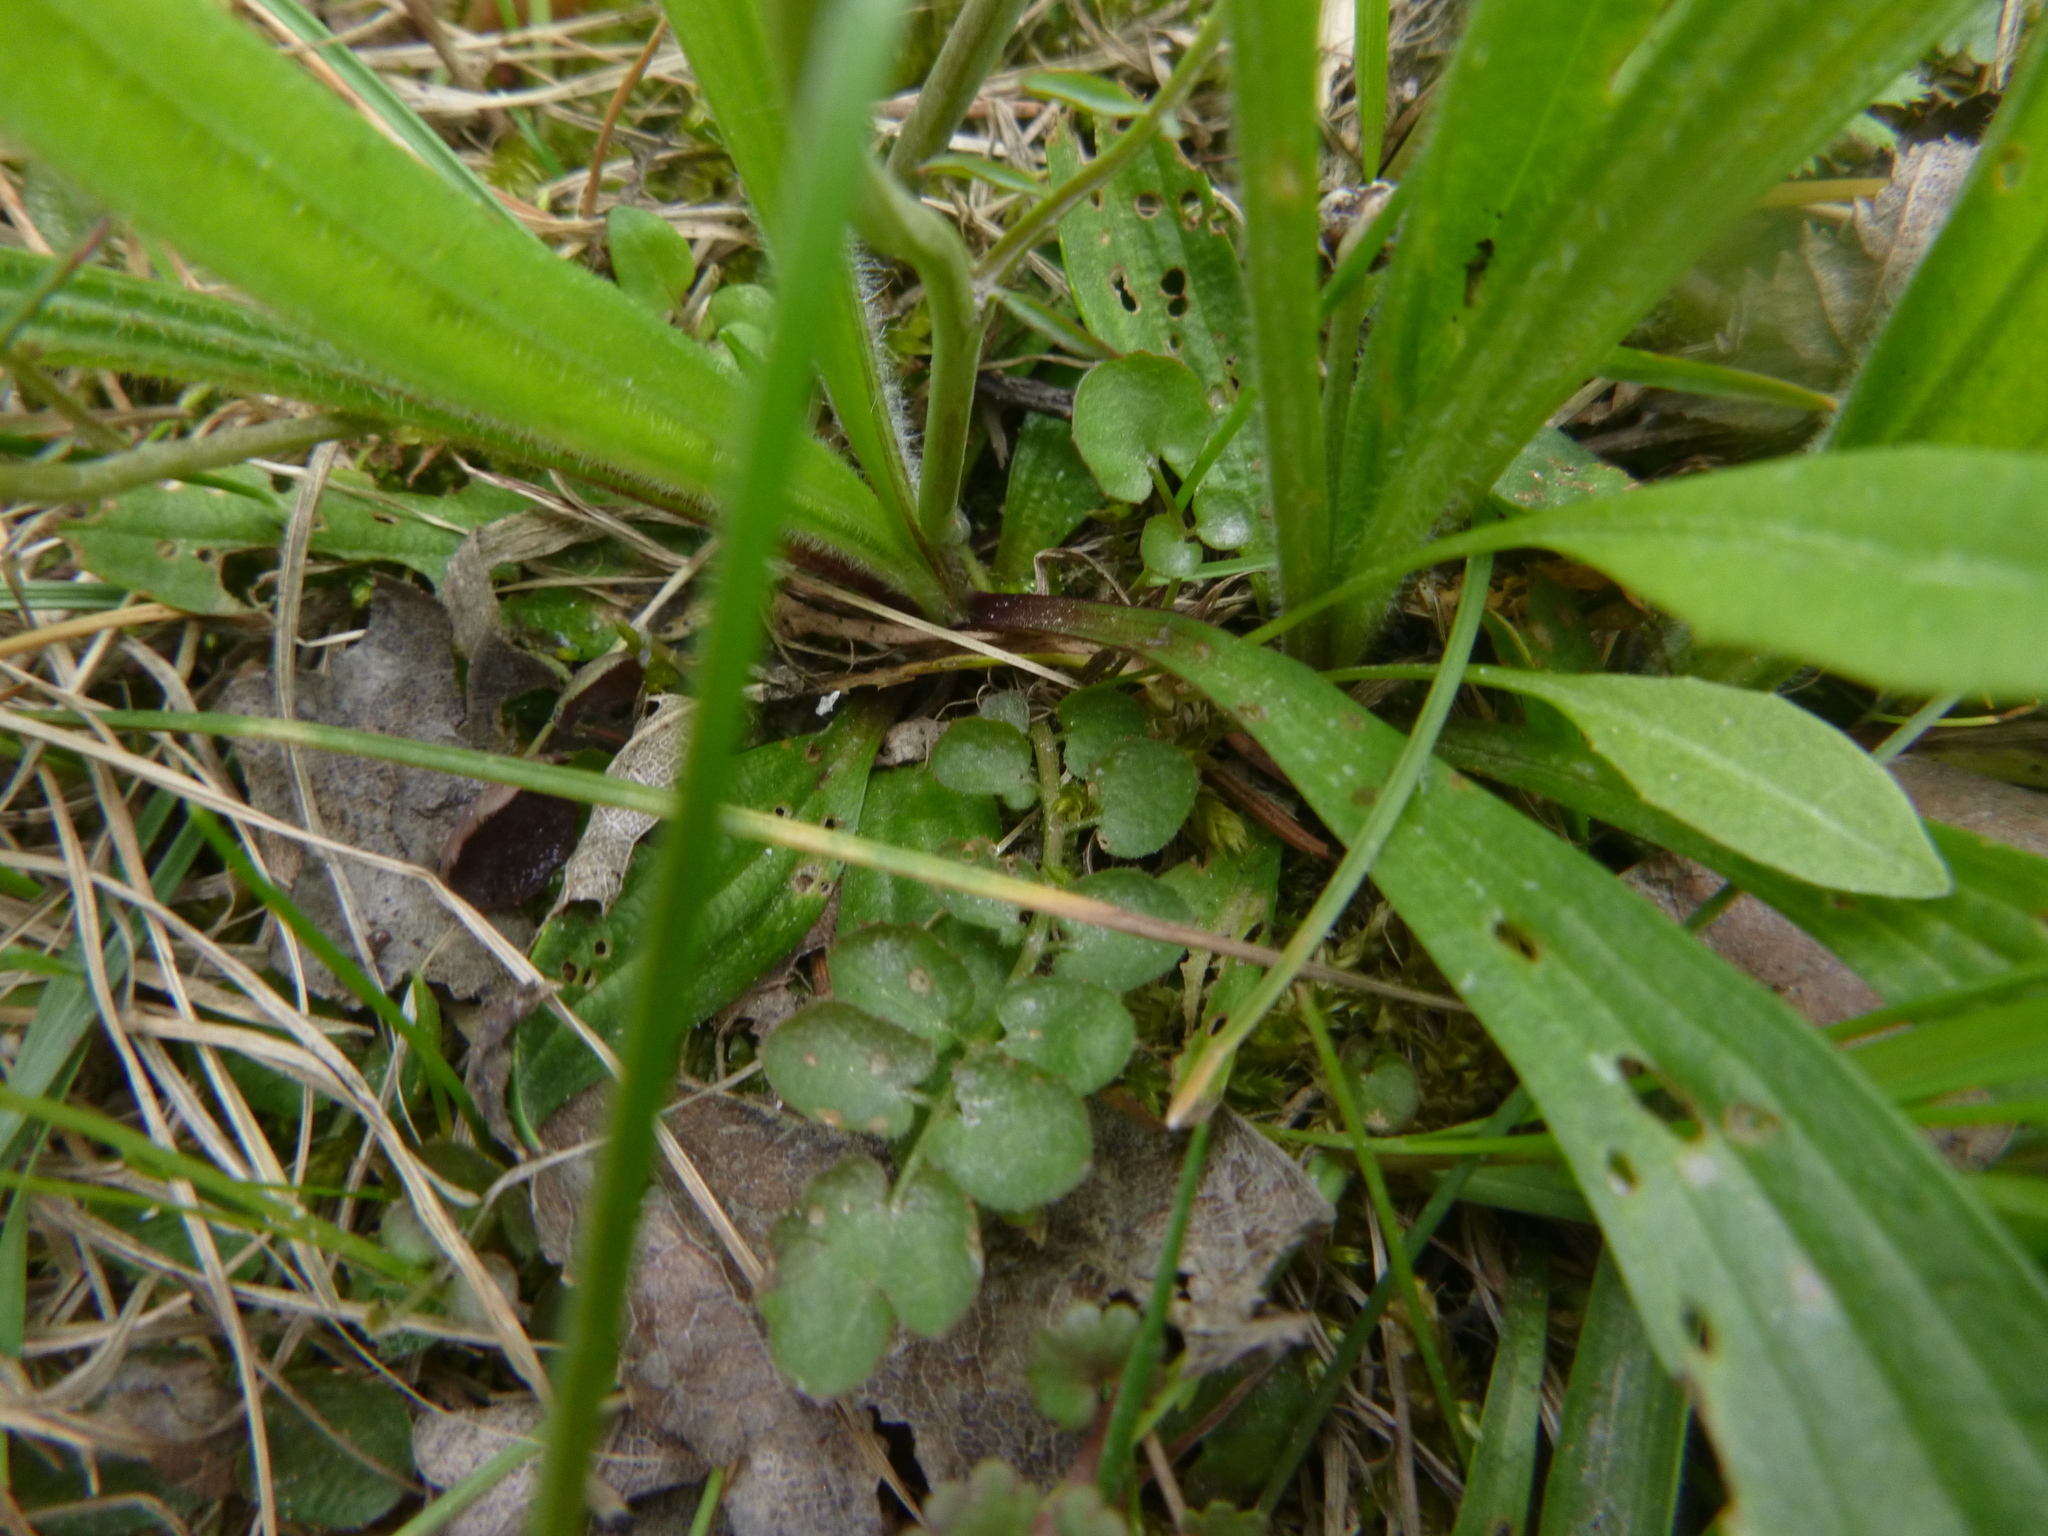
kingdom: Plantae
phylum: Tracheophyta
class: Magnoliopsida
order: Brassicales
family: Brassicaceae
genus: Cardamine
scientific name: Cardamine pratensis
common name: Cuckoo flower
